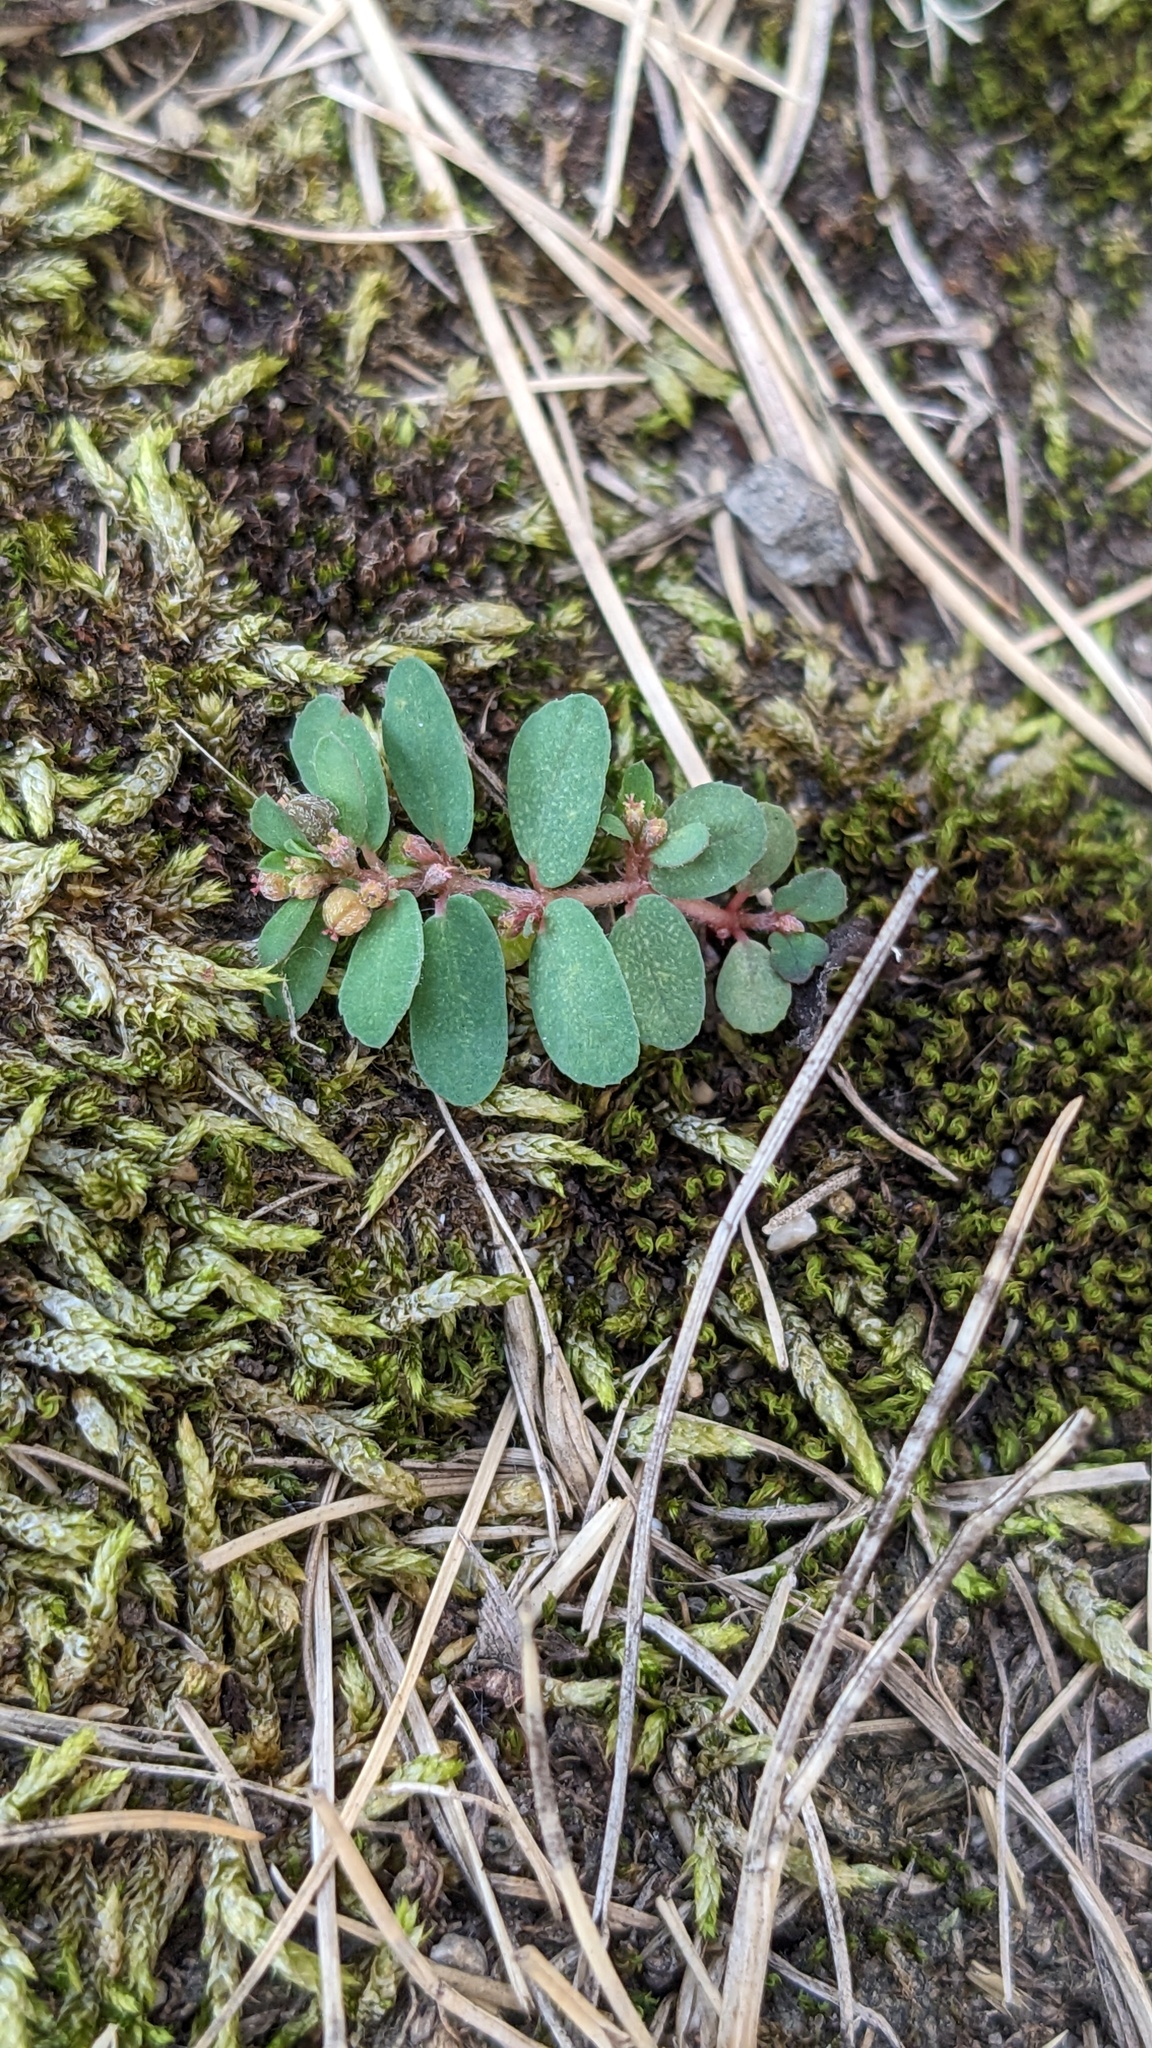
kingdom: Plantae
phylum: Tracheophyta
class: Magnoliopsida
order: Malpighiales
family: Euphorbiaceae
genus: Euphorbia
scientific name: Euphorbia maculata
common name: Spotted spurge
